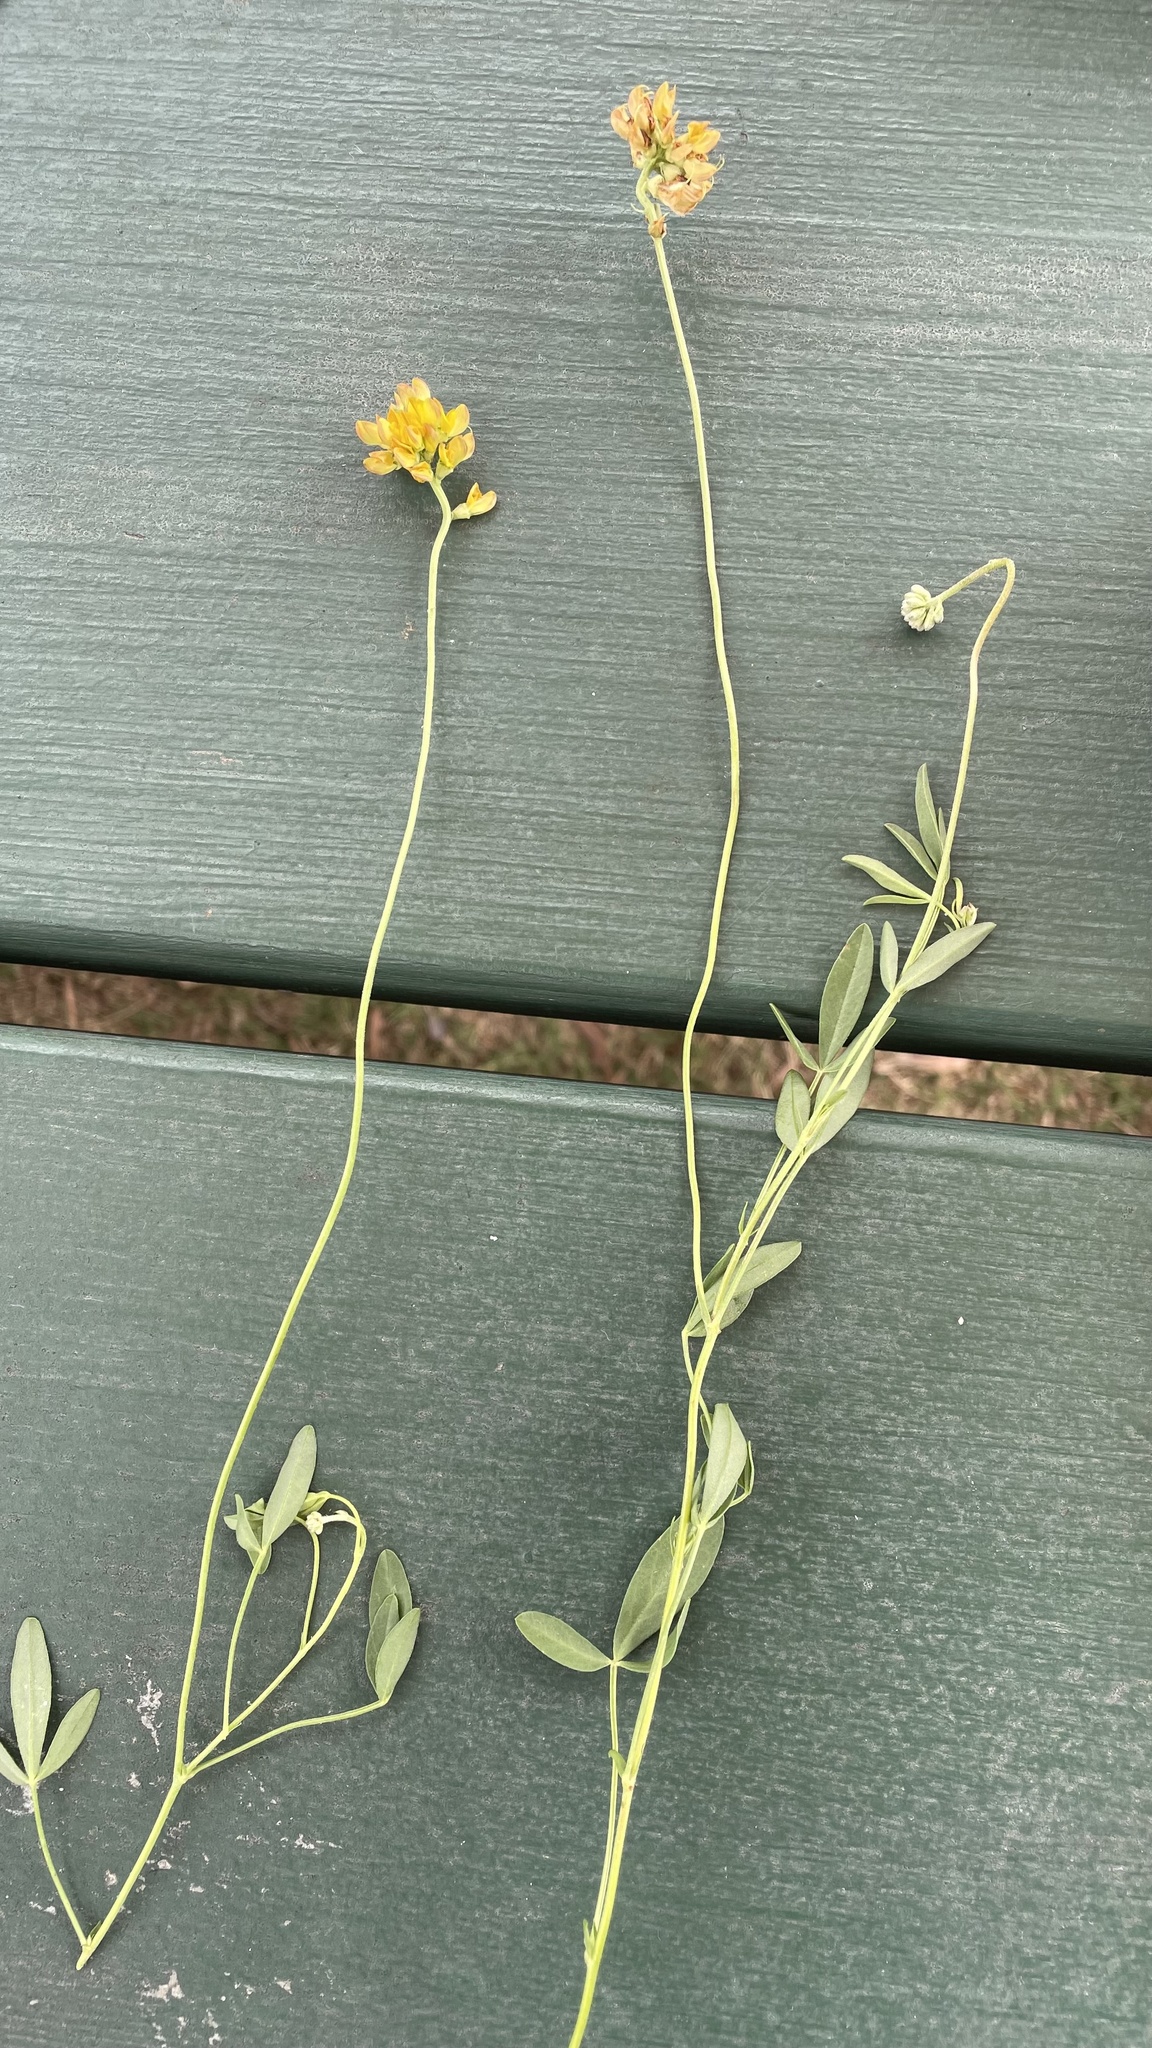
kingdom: Plantae
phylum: Tracheophyta
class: Magnoliopsida
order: Fabales
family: Fabaceae
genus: Listia
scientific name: Listia bainesii
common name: Lotononis
